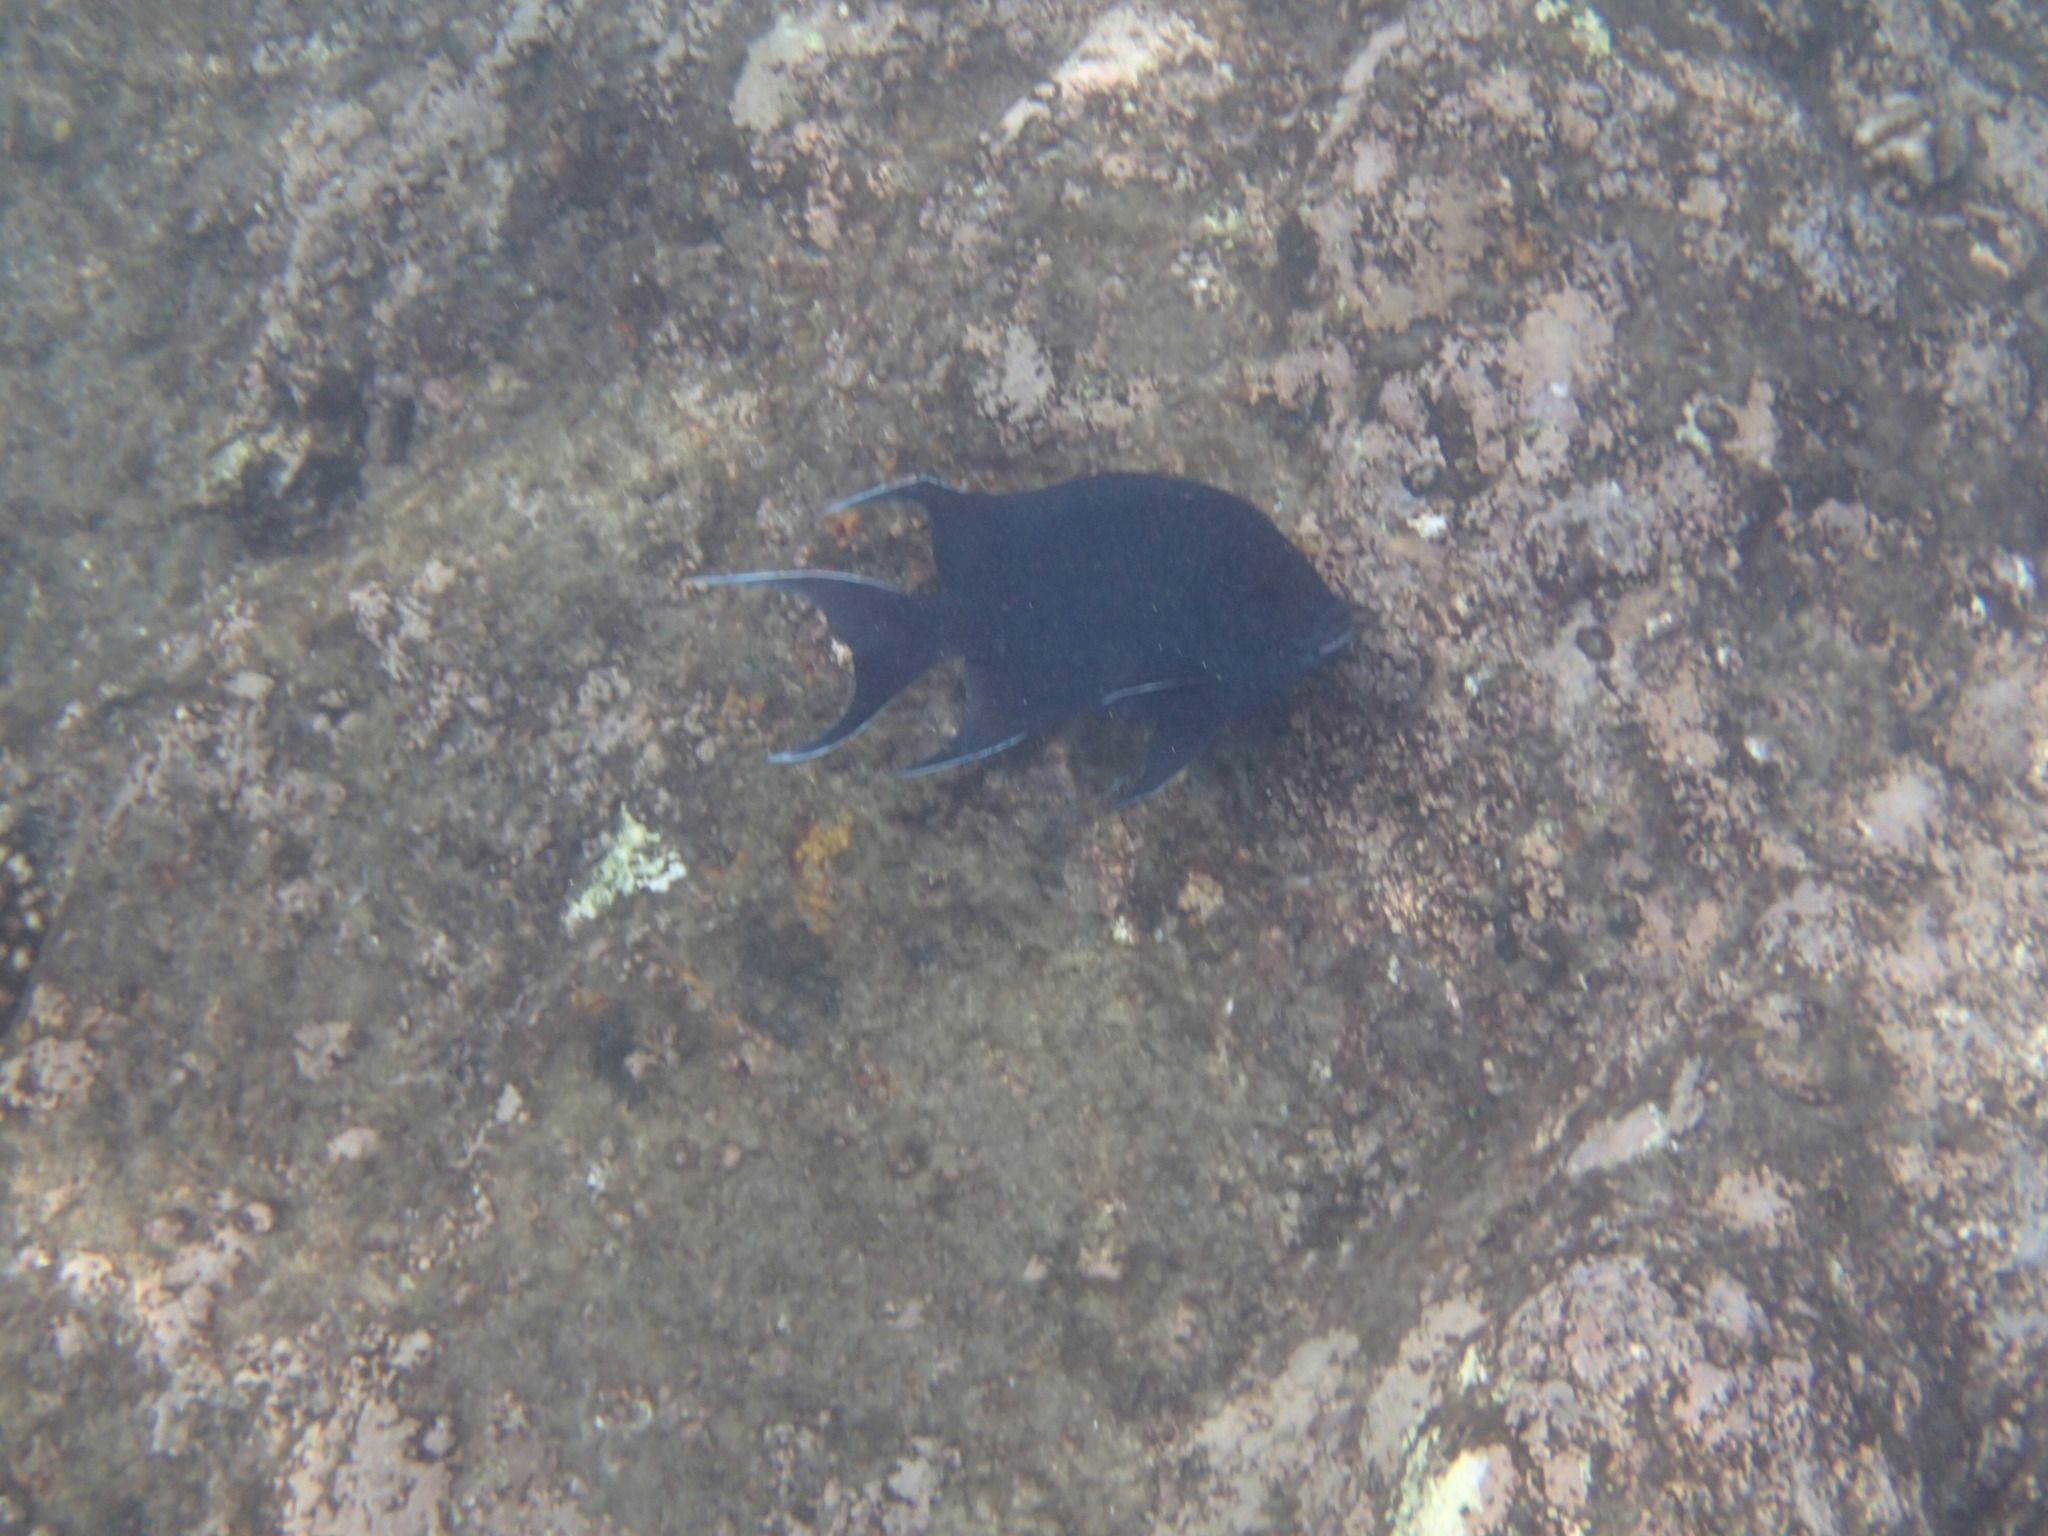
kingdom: Animalia
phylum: Chordata
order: Perciformes
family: Pomacentridae
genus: Microspathodon
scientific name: Microspathodon dorsalis
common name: Giant damselfish
